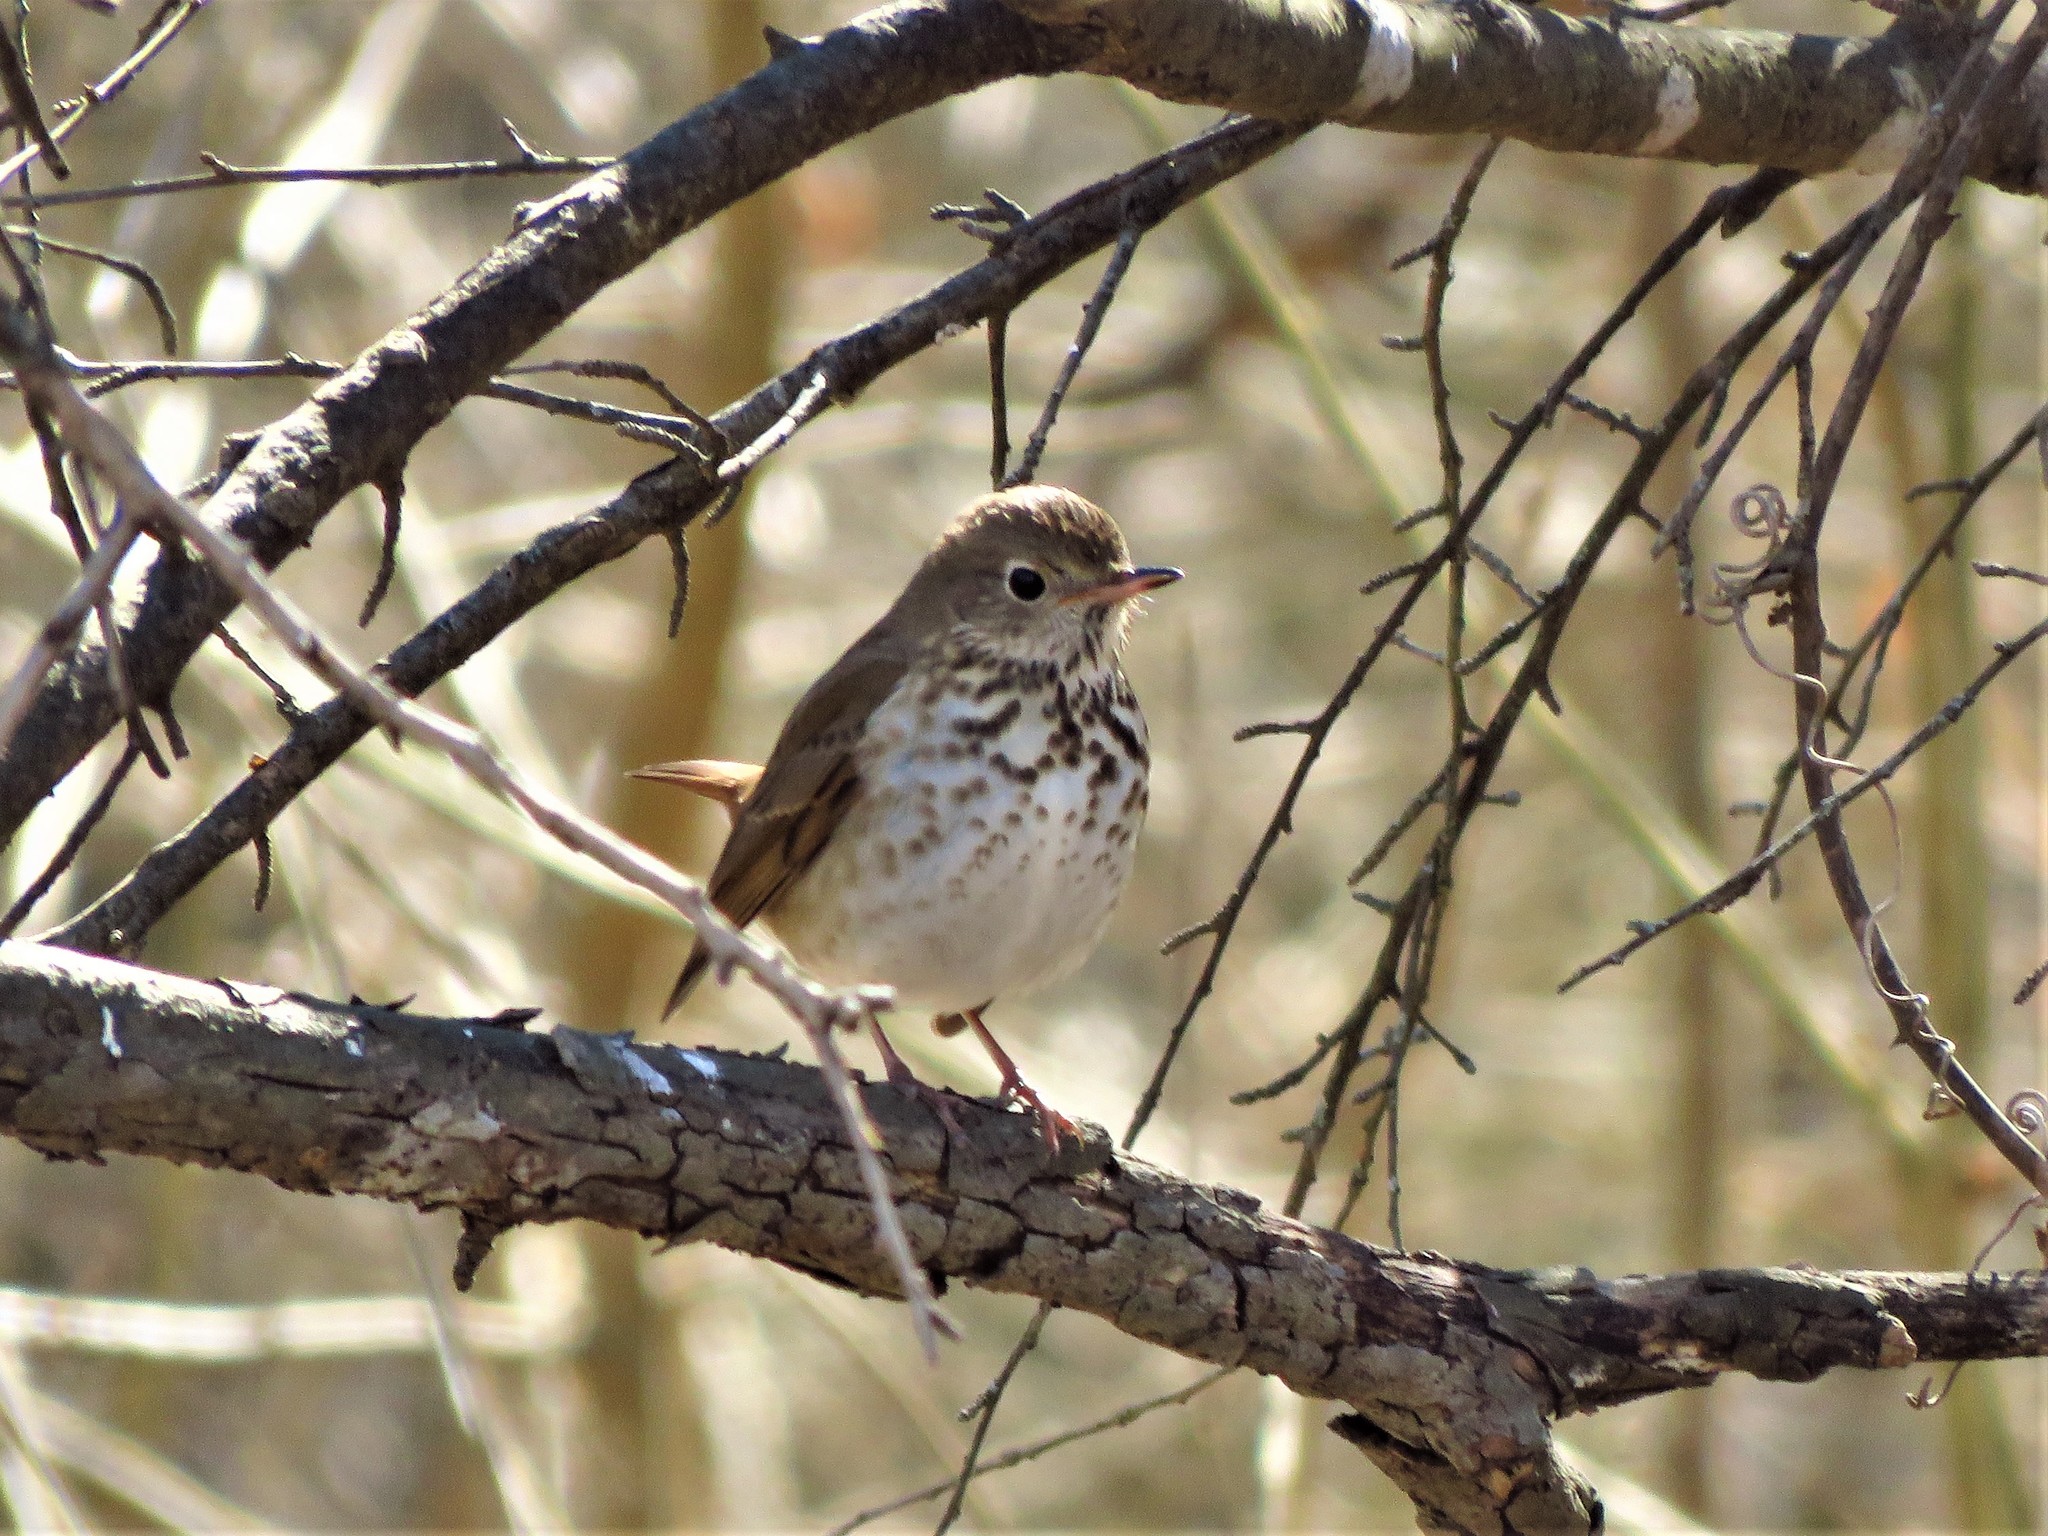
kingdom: Animalia
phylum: Chordata
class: Aves
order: Passeriformes
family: Turdidae
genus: Catharus
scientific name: Catharus guttatus
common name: Hermit thrush
